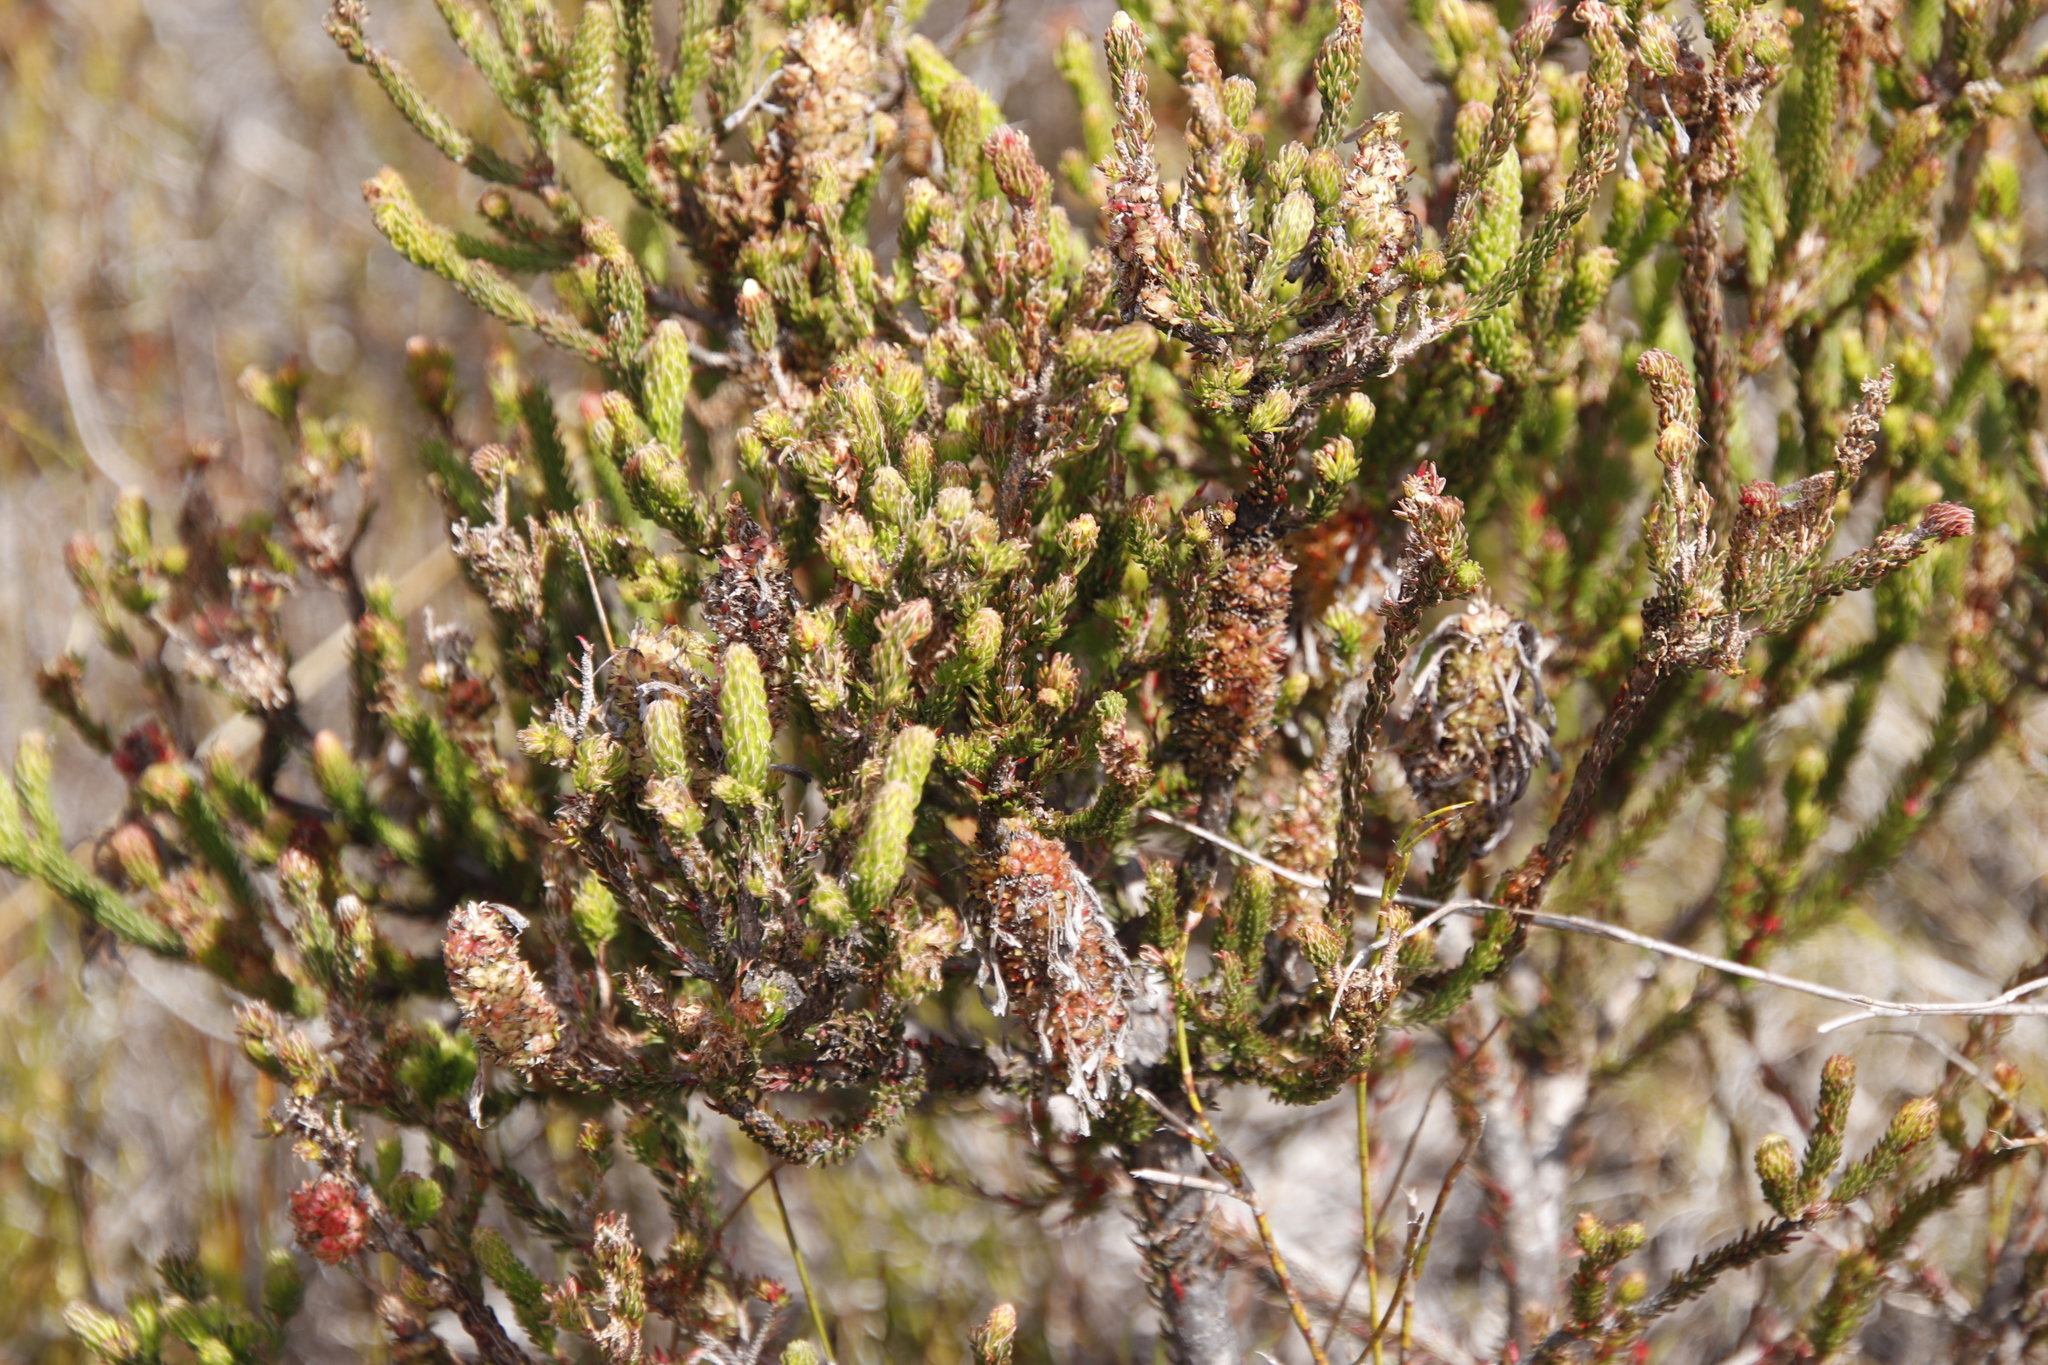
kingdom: Plantae
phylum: Tracheophyta
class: Magnoliopsida
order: Ericales
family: Ericaceae
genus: Erica
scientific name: Erica sessiliflora
